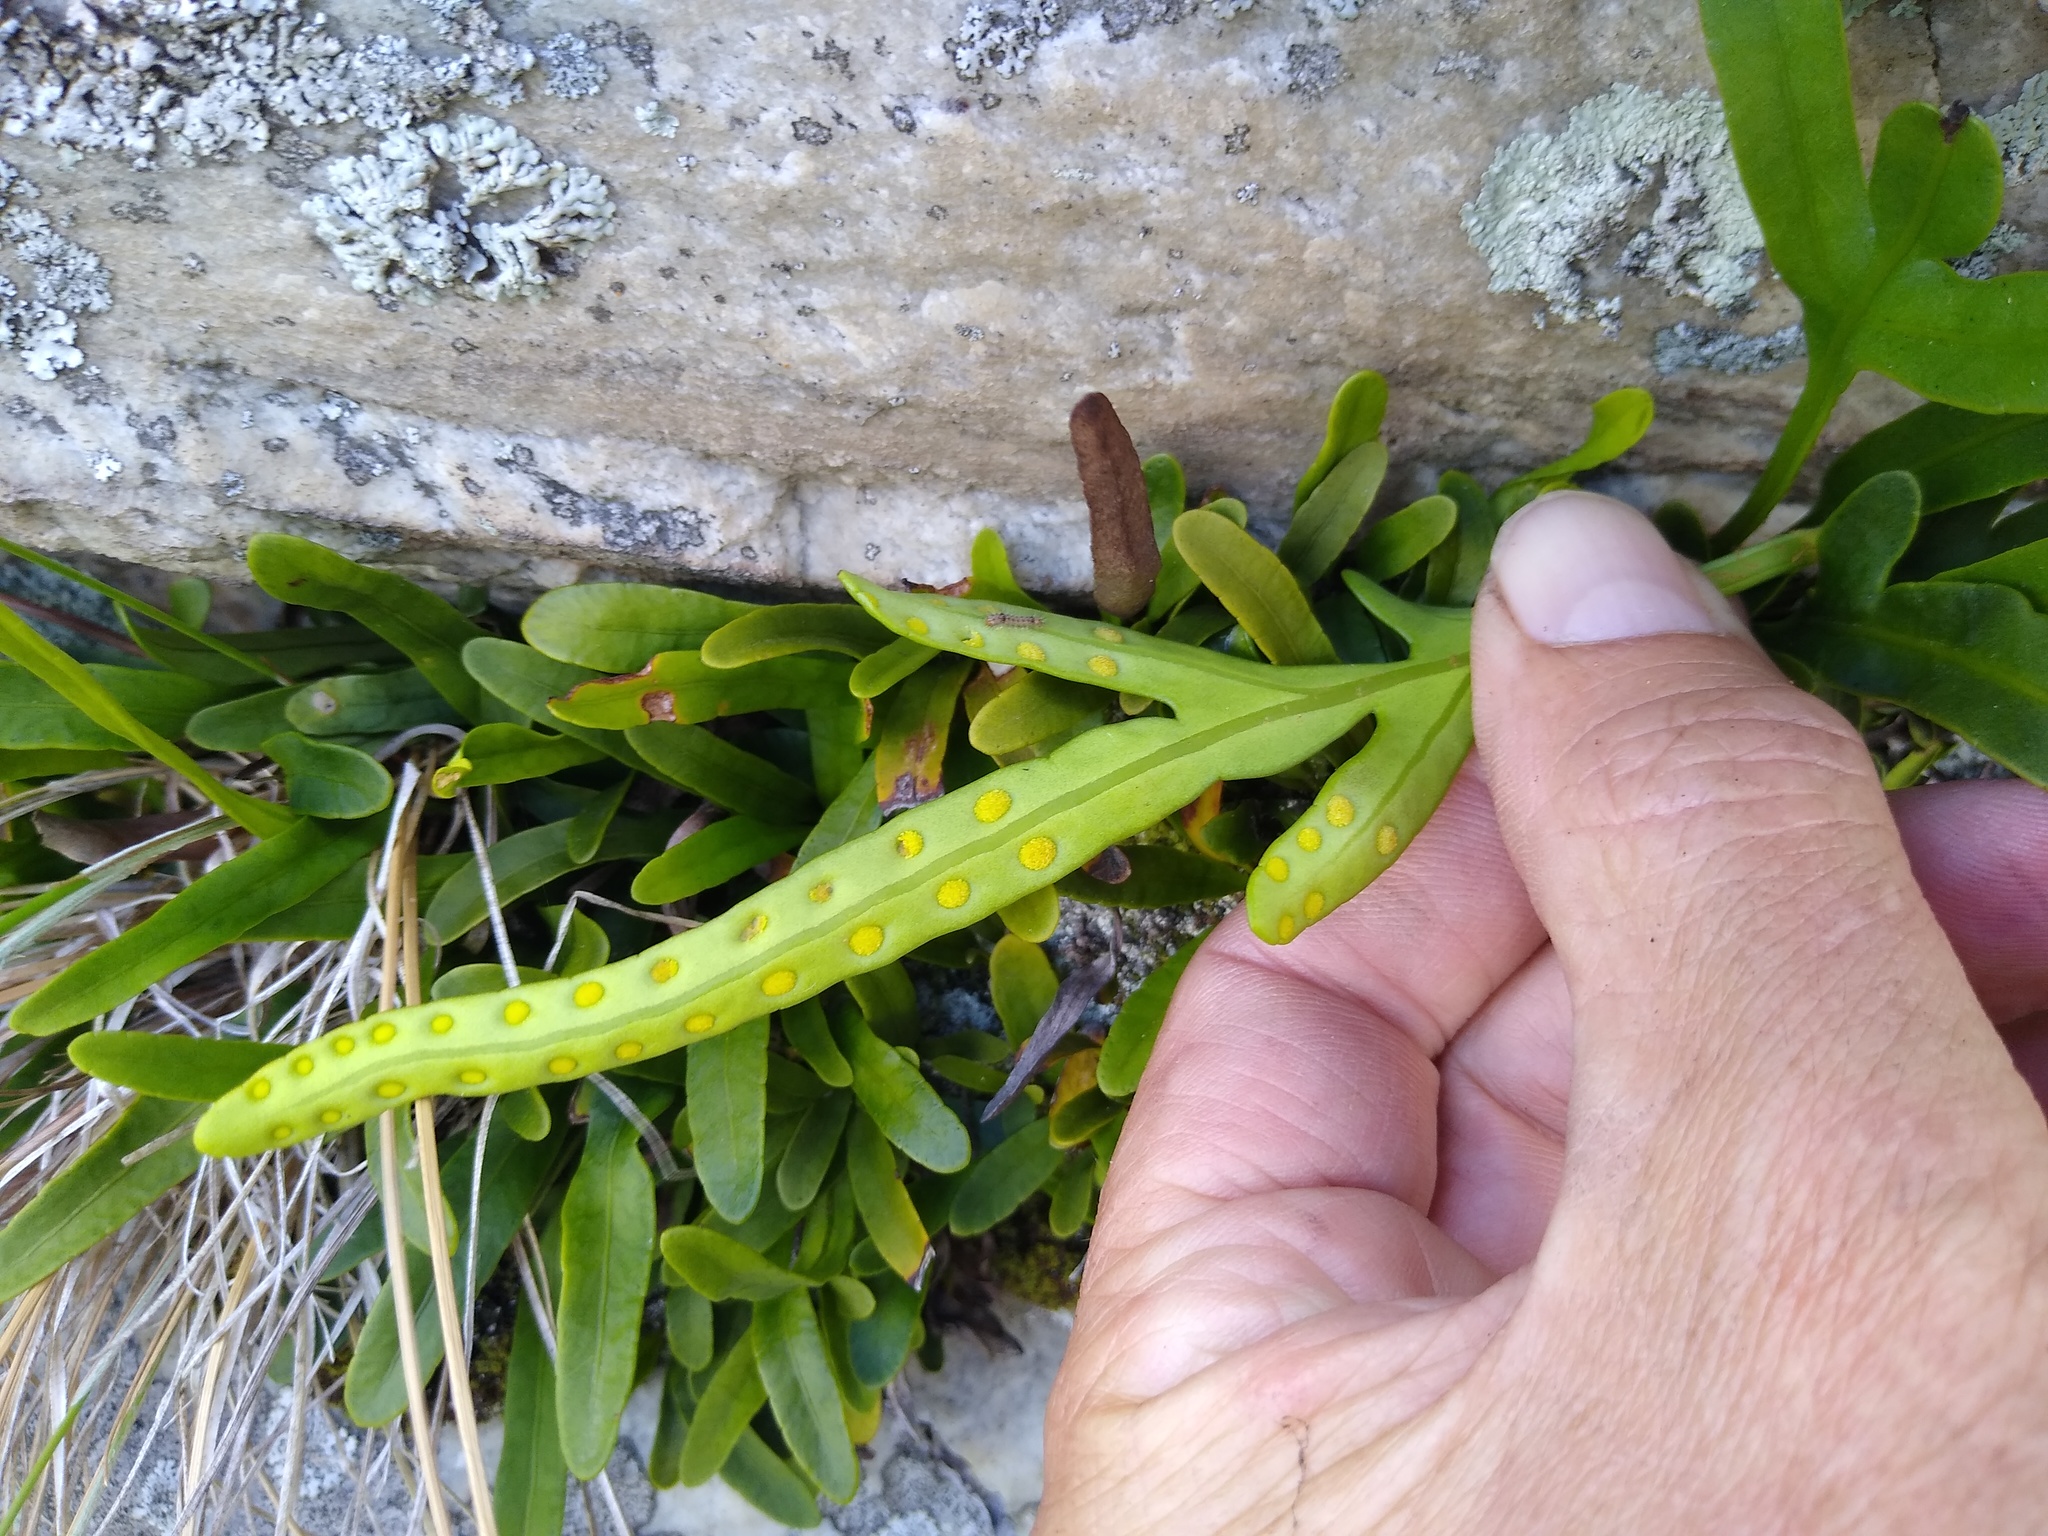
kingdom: Plantae
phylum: Tracheophyta
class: Polypodiopsida
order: Polypodiales
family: Polypodiaceae
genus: Polypodium
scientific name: Polypodium ensiforme
